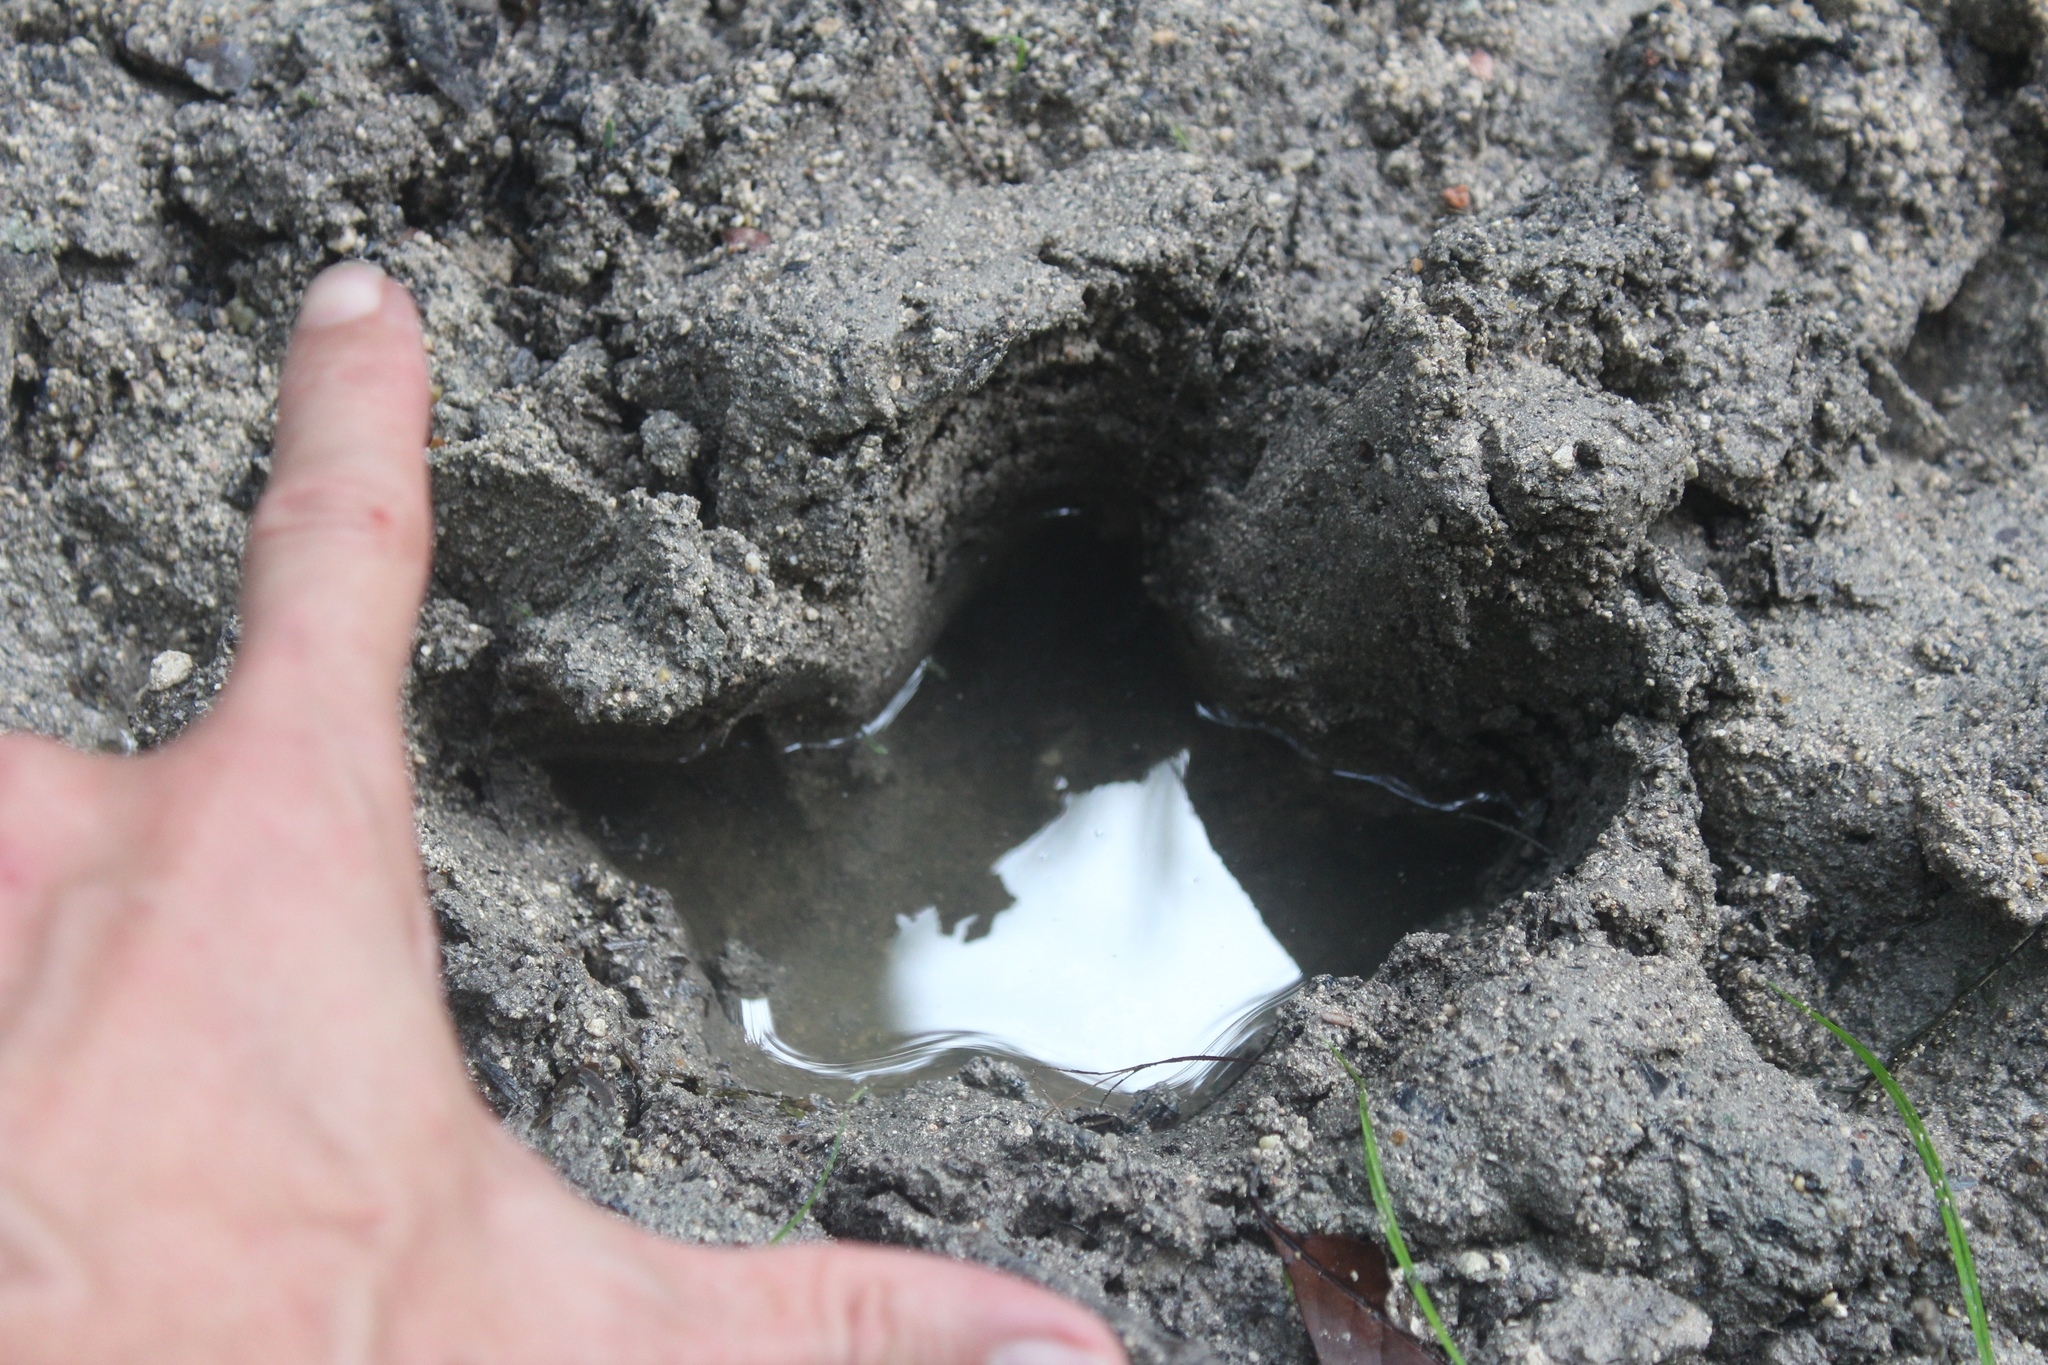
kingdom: Animalia
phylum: Chordata
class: Mammalia
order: Perissodactyla
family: Tapiridae
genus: Tapirella
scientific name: Tapirella bairdii
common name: Baird's tapir
